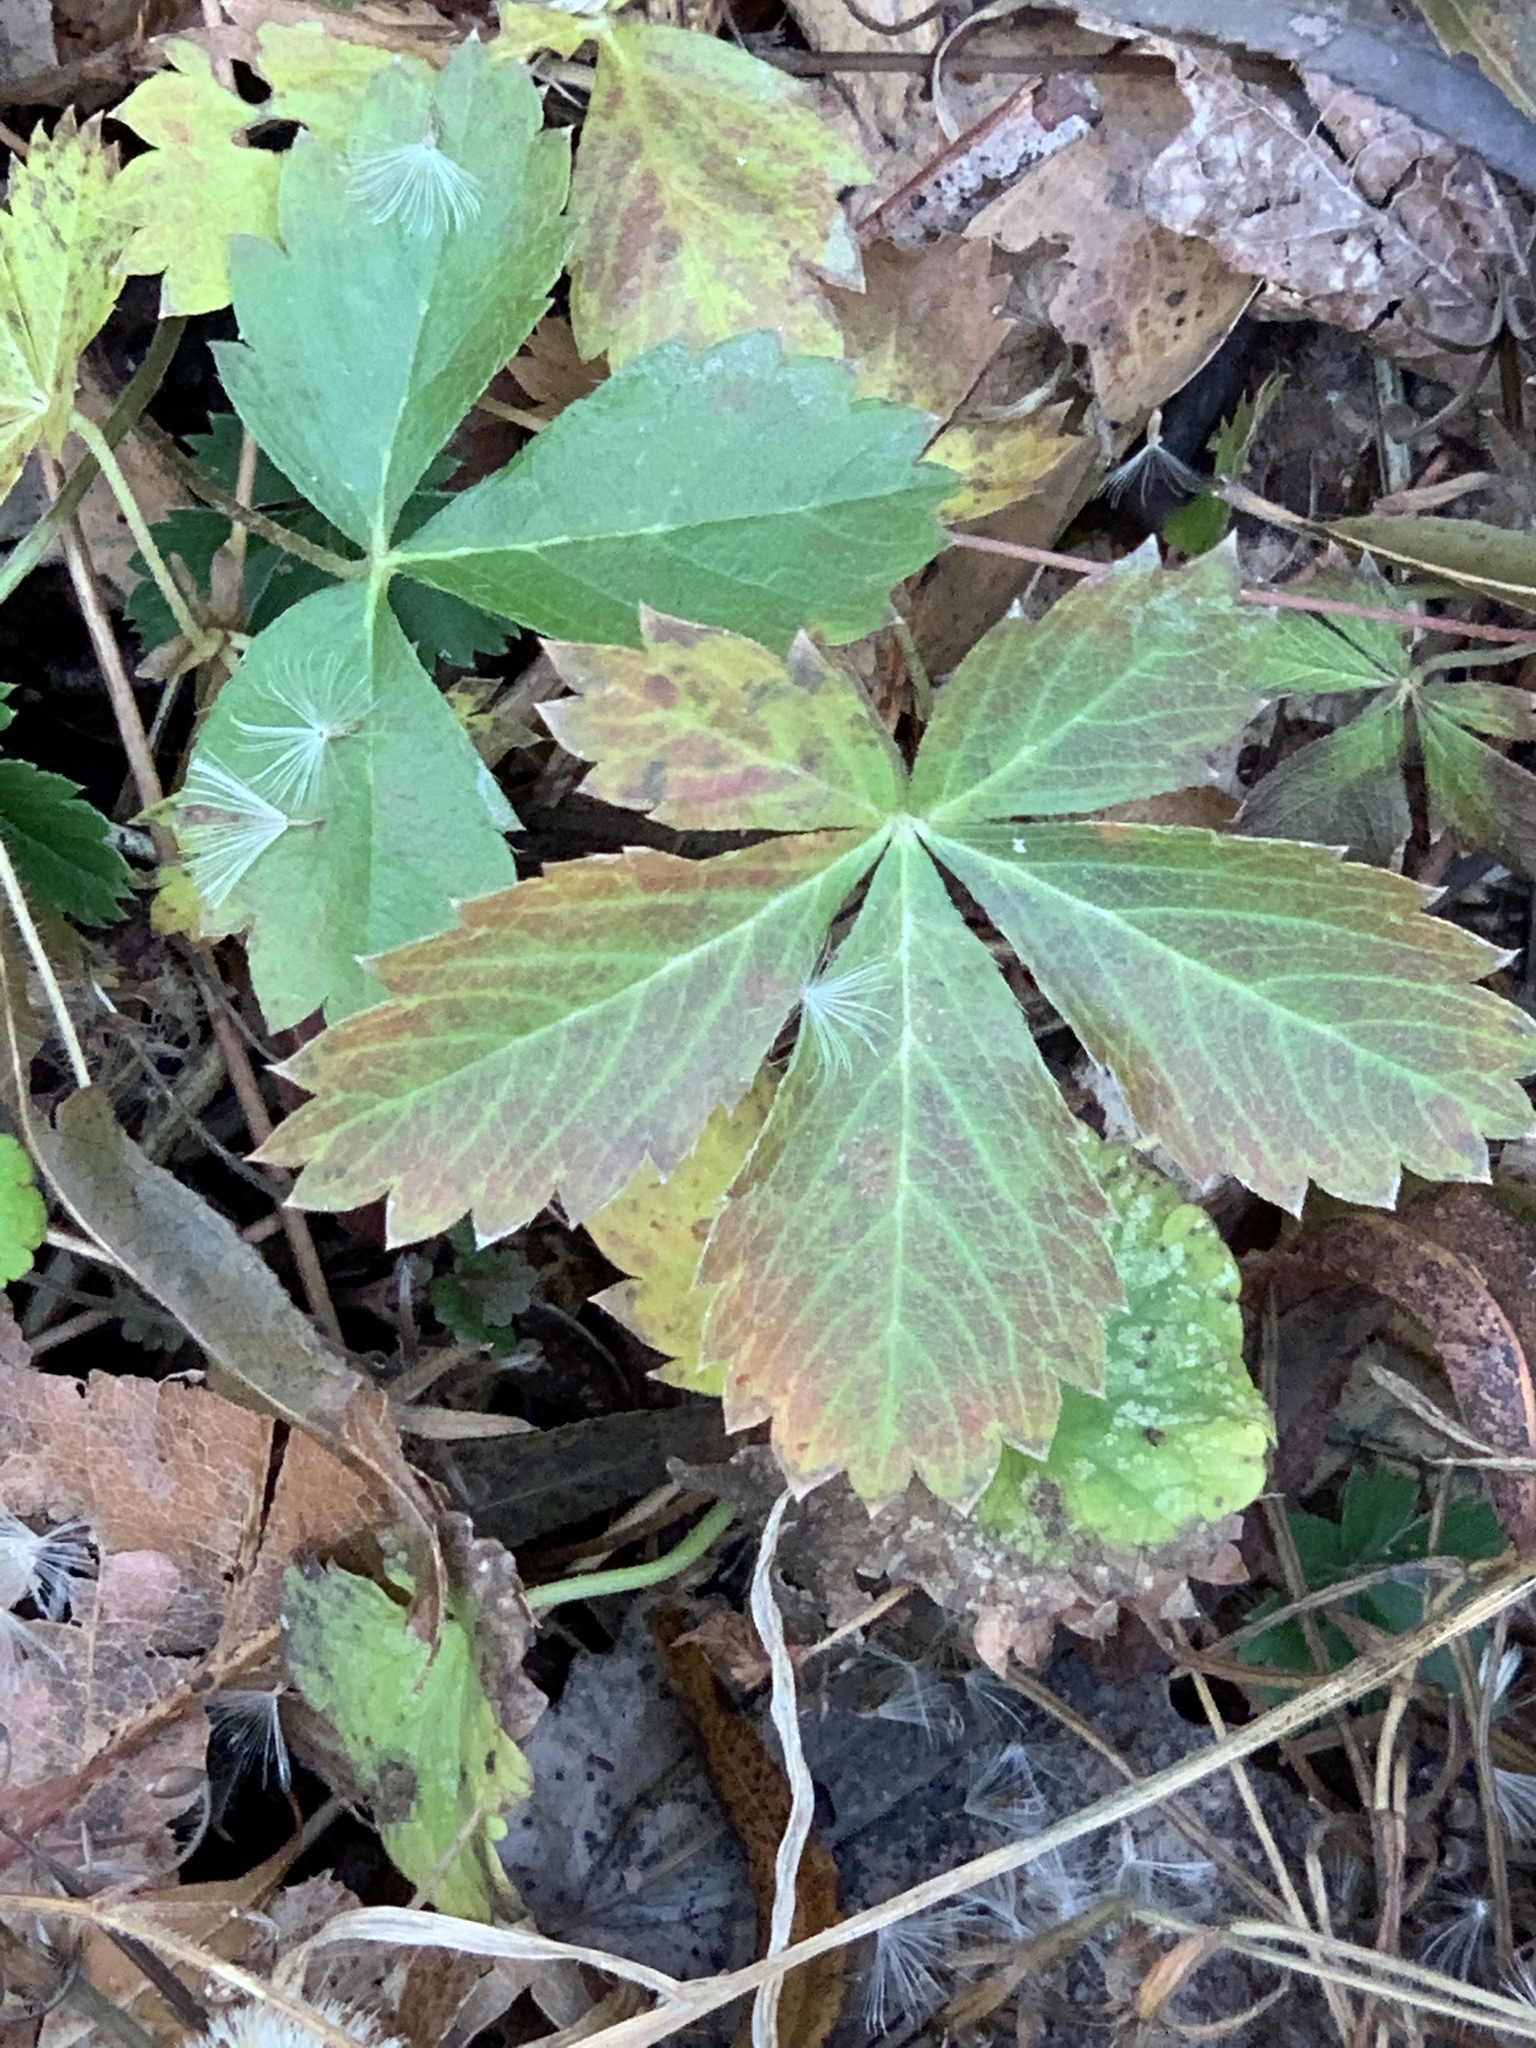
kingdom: Plantae
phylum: Tracheophyta
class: Magnoliopsida
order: Rosales
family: Rosaceae
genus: Potentilla
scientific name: Potentilla canadensis
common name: Canada cinquefoil
